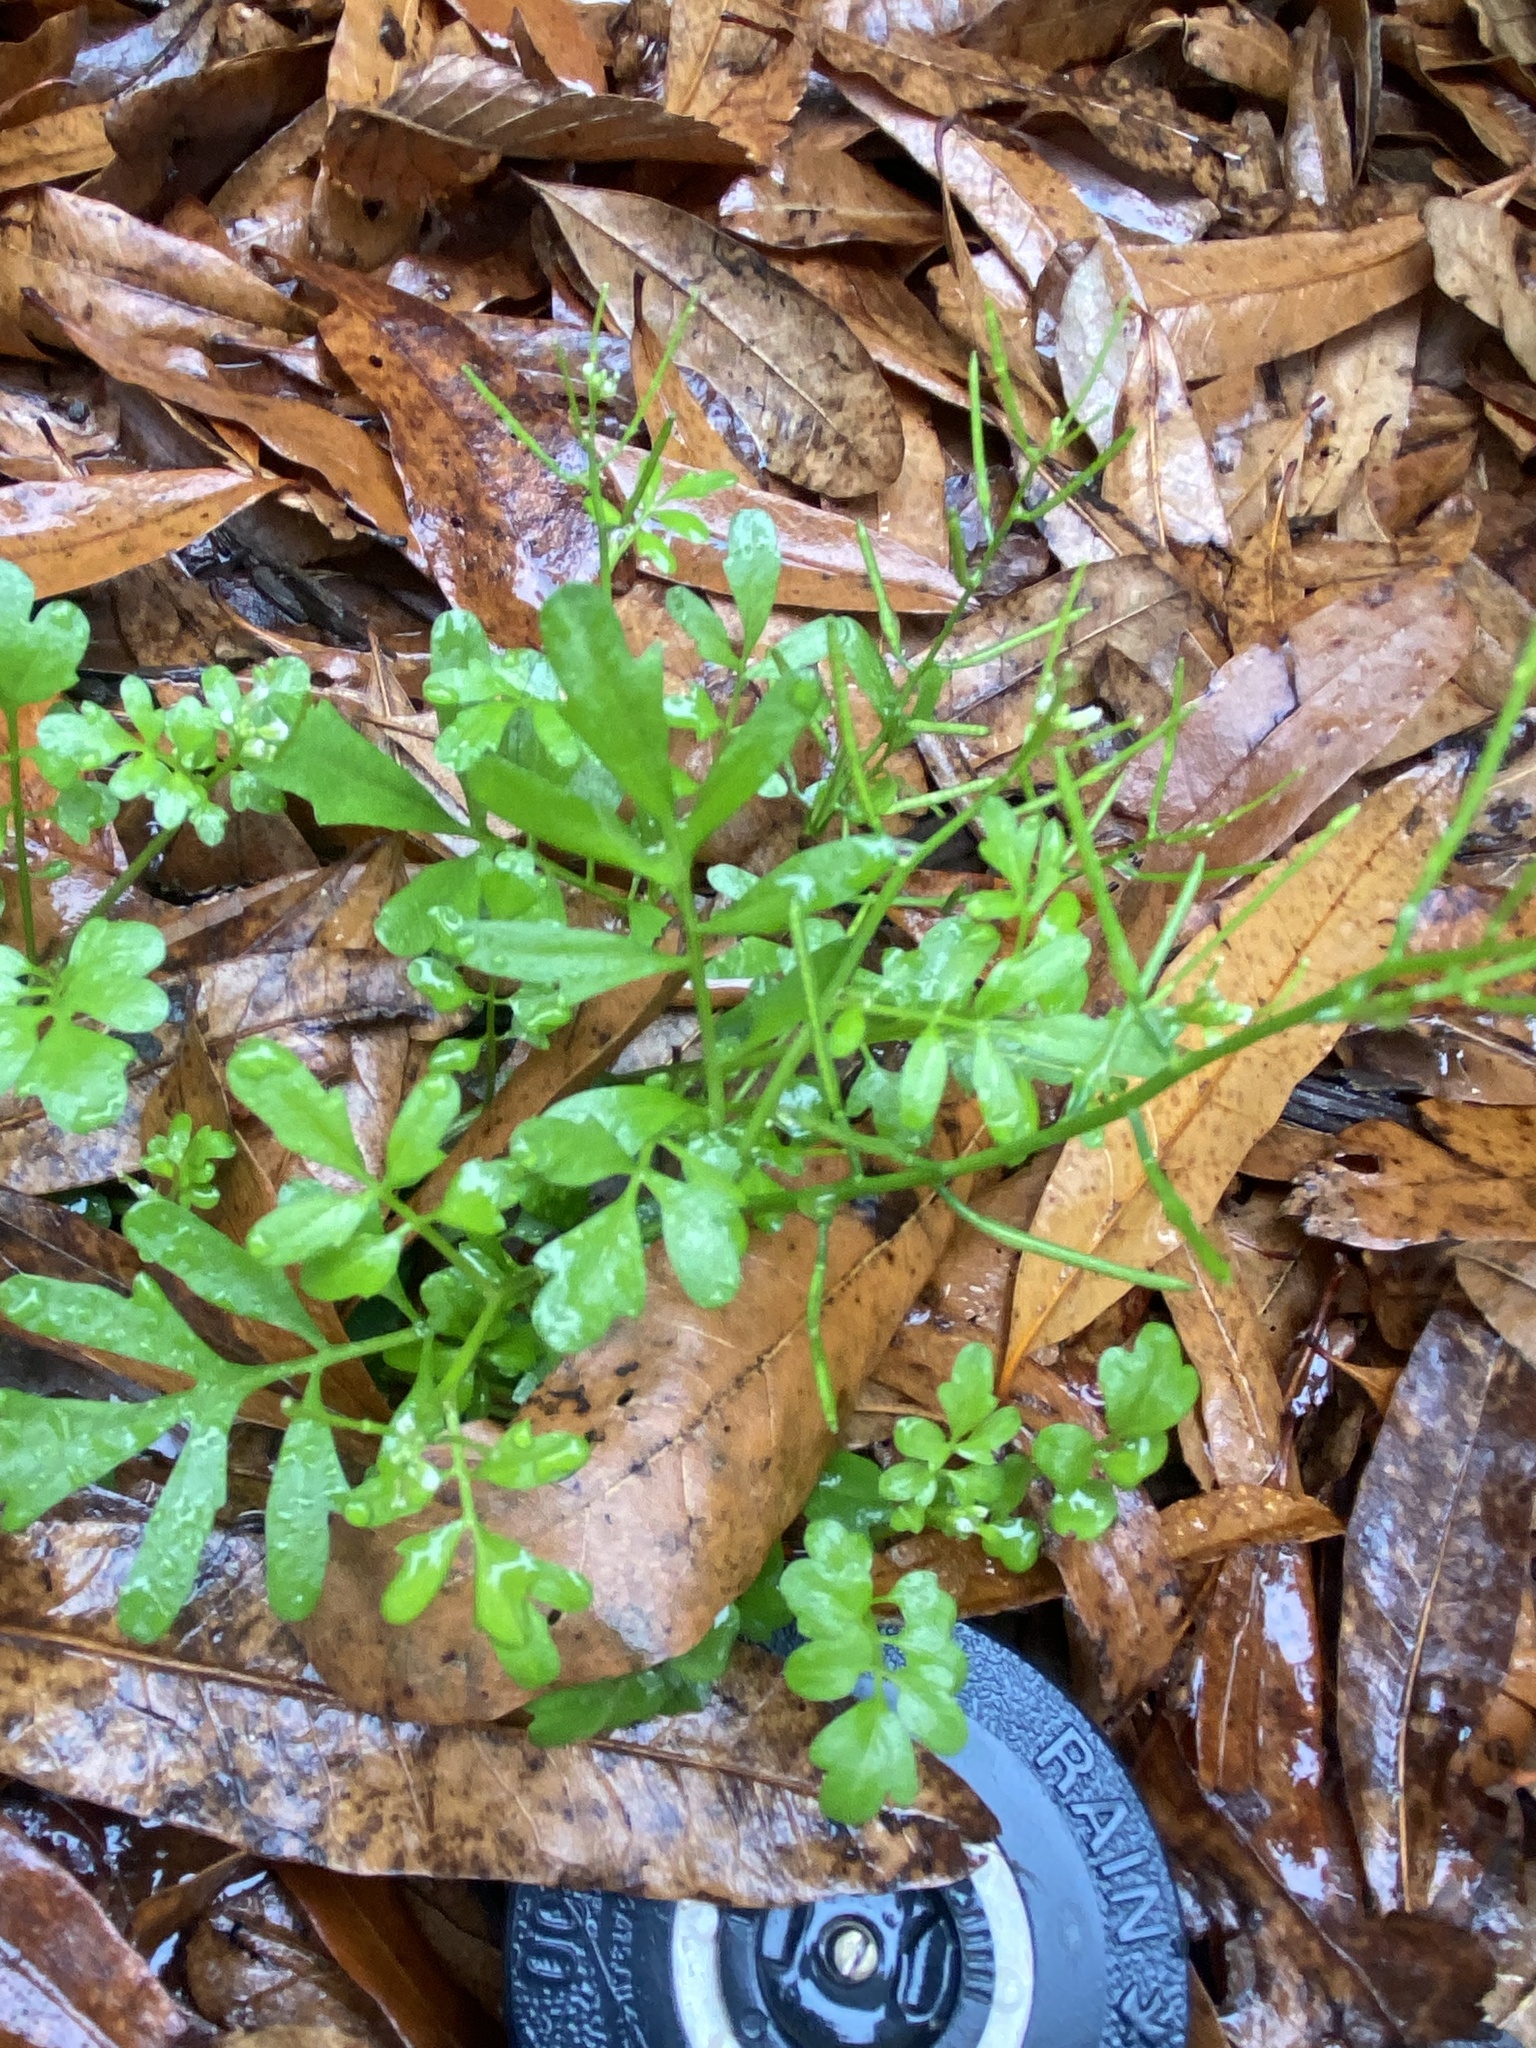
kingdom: Plantae
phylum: Tracheophyta
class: Magnoliopsida
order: Brassicales
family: Brassicaceae
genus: Cardamine
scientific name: Cardamine pensylvanica
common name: Pennsylvania bittercress
